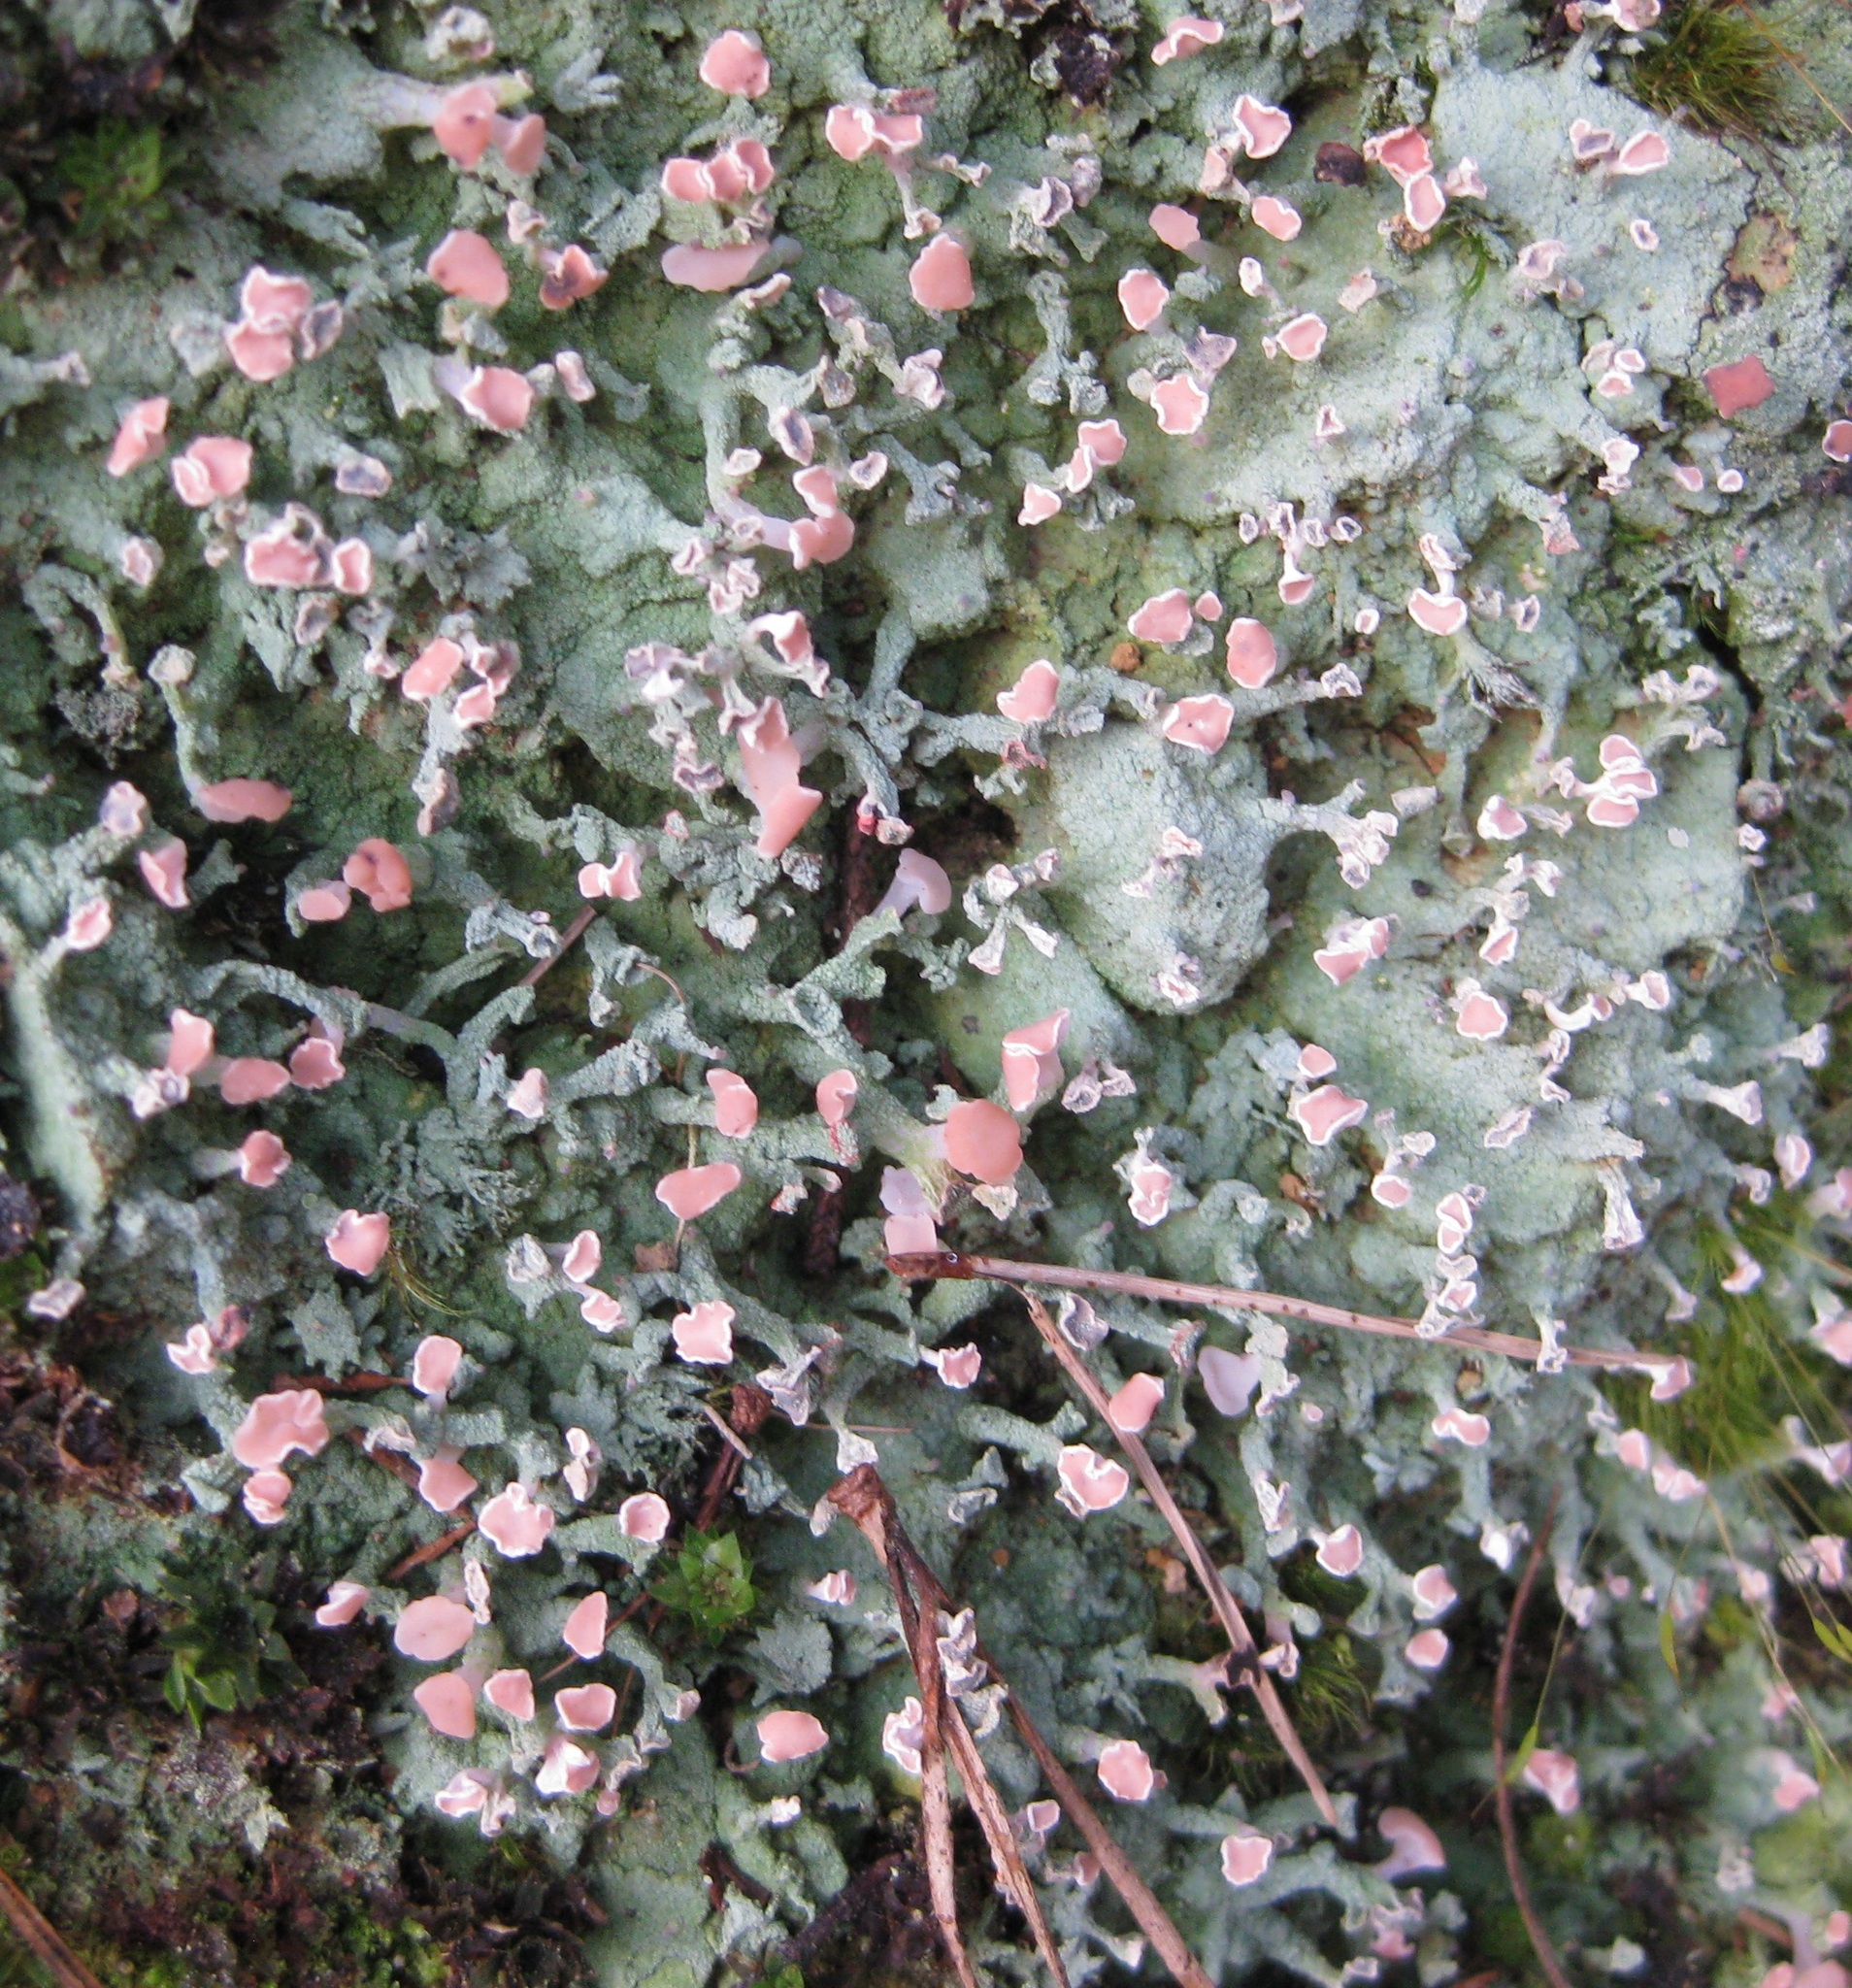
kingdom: Fungi
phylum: Ascomycota
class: Lecanoromycetes
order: Baeomycetales
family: Baeomycetaceae
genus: Baeomyces
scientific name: Baeomyces heteromorphus
